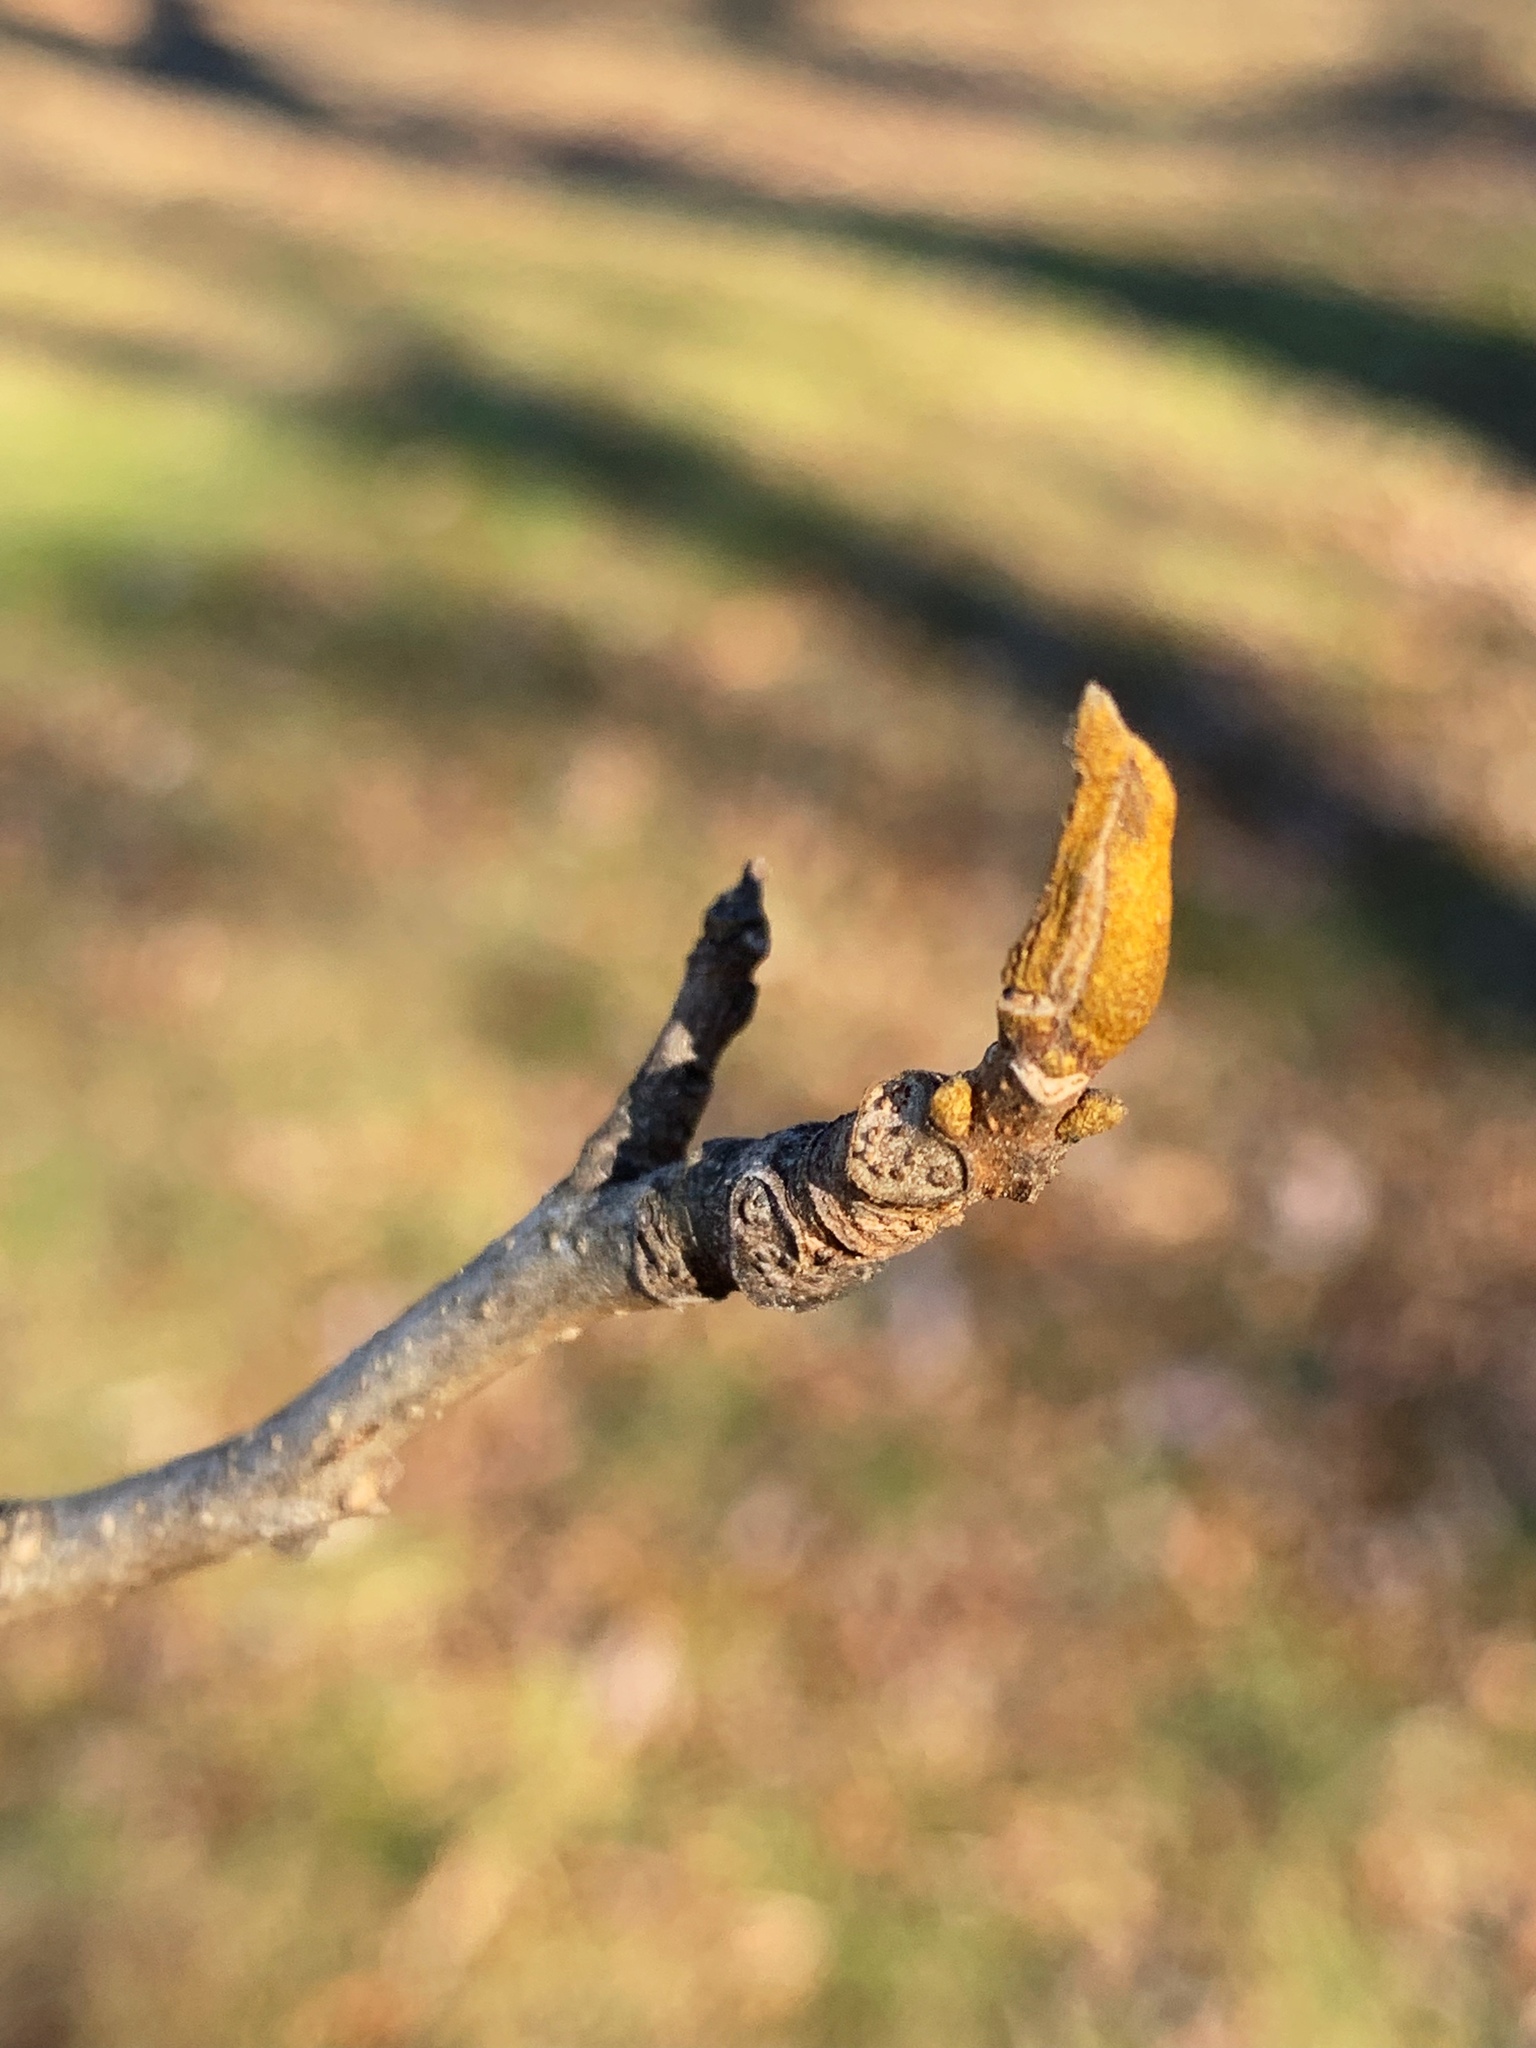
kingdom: Plantae
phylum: Tracheophyta
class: Magnoliopsida
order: Fagales
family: Juglandaceae
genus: Carya
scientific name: Carya cordiformis
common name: Bitternut hickory
